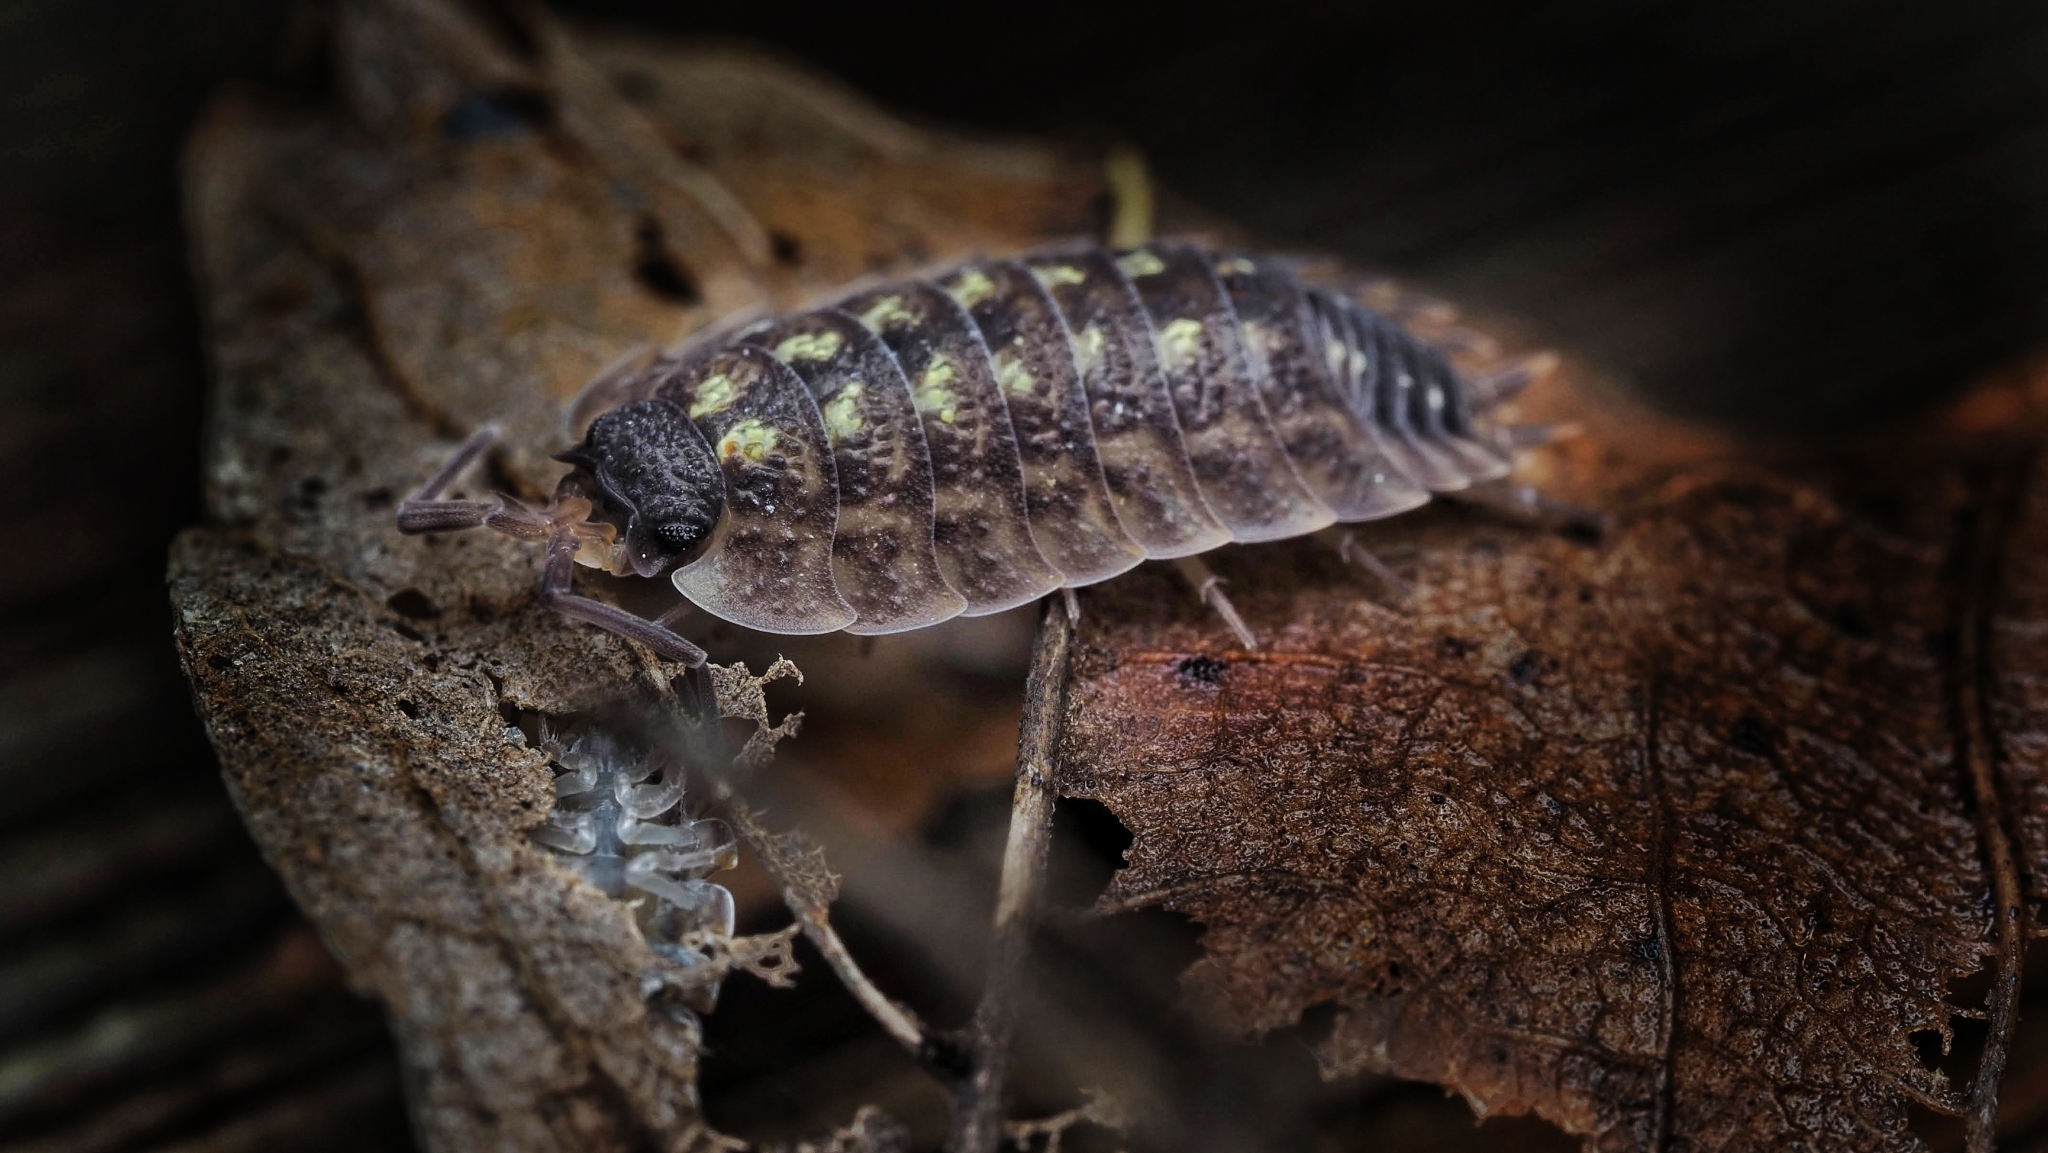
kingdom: Animalia
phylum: Arthropoda
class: Malacostraca
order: Isopoda
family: Porcellionidae
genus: Porcellio
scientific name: Porcellio spinicornis
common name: Painted woodlouse
